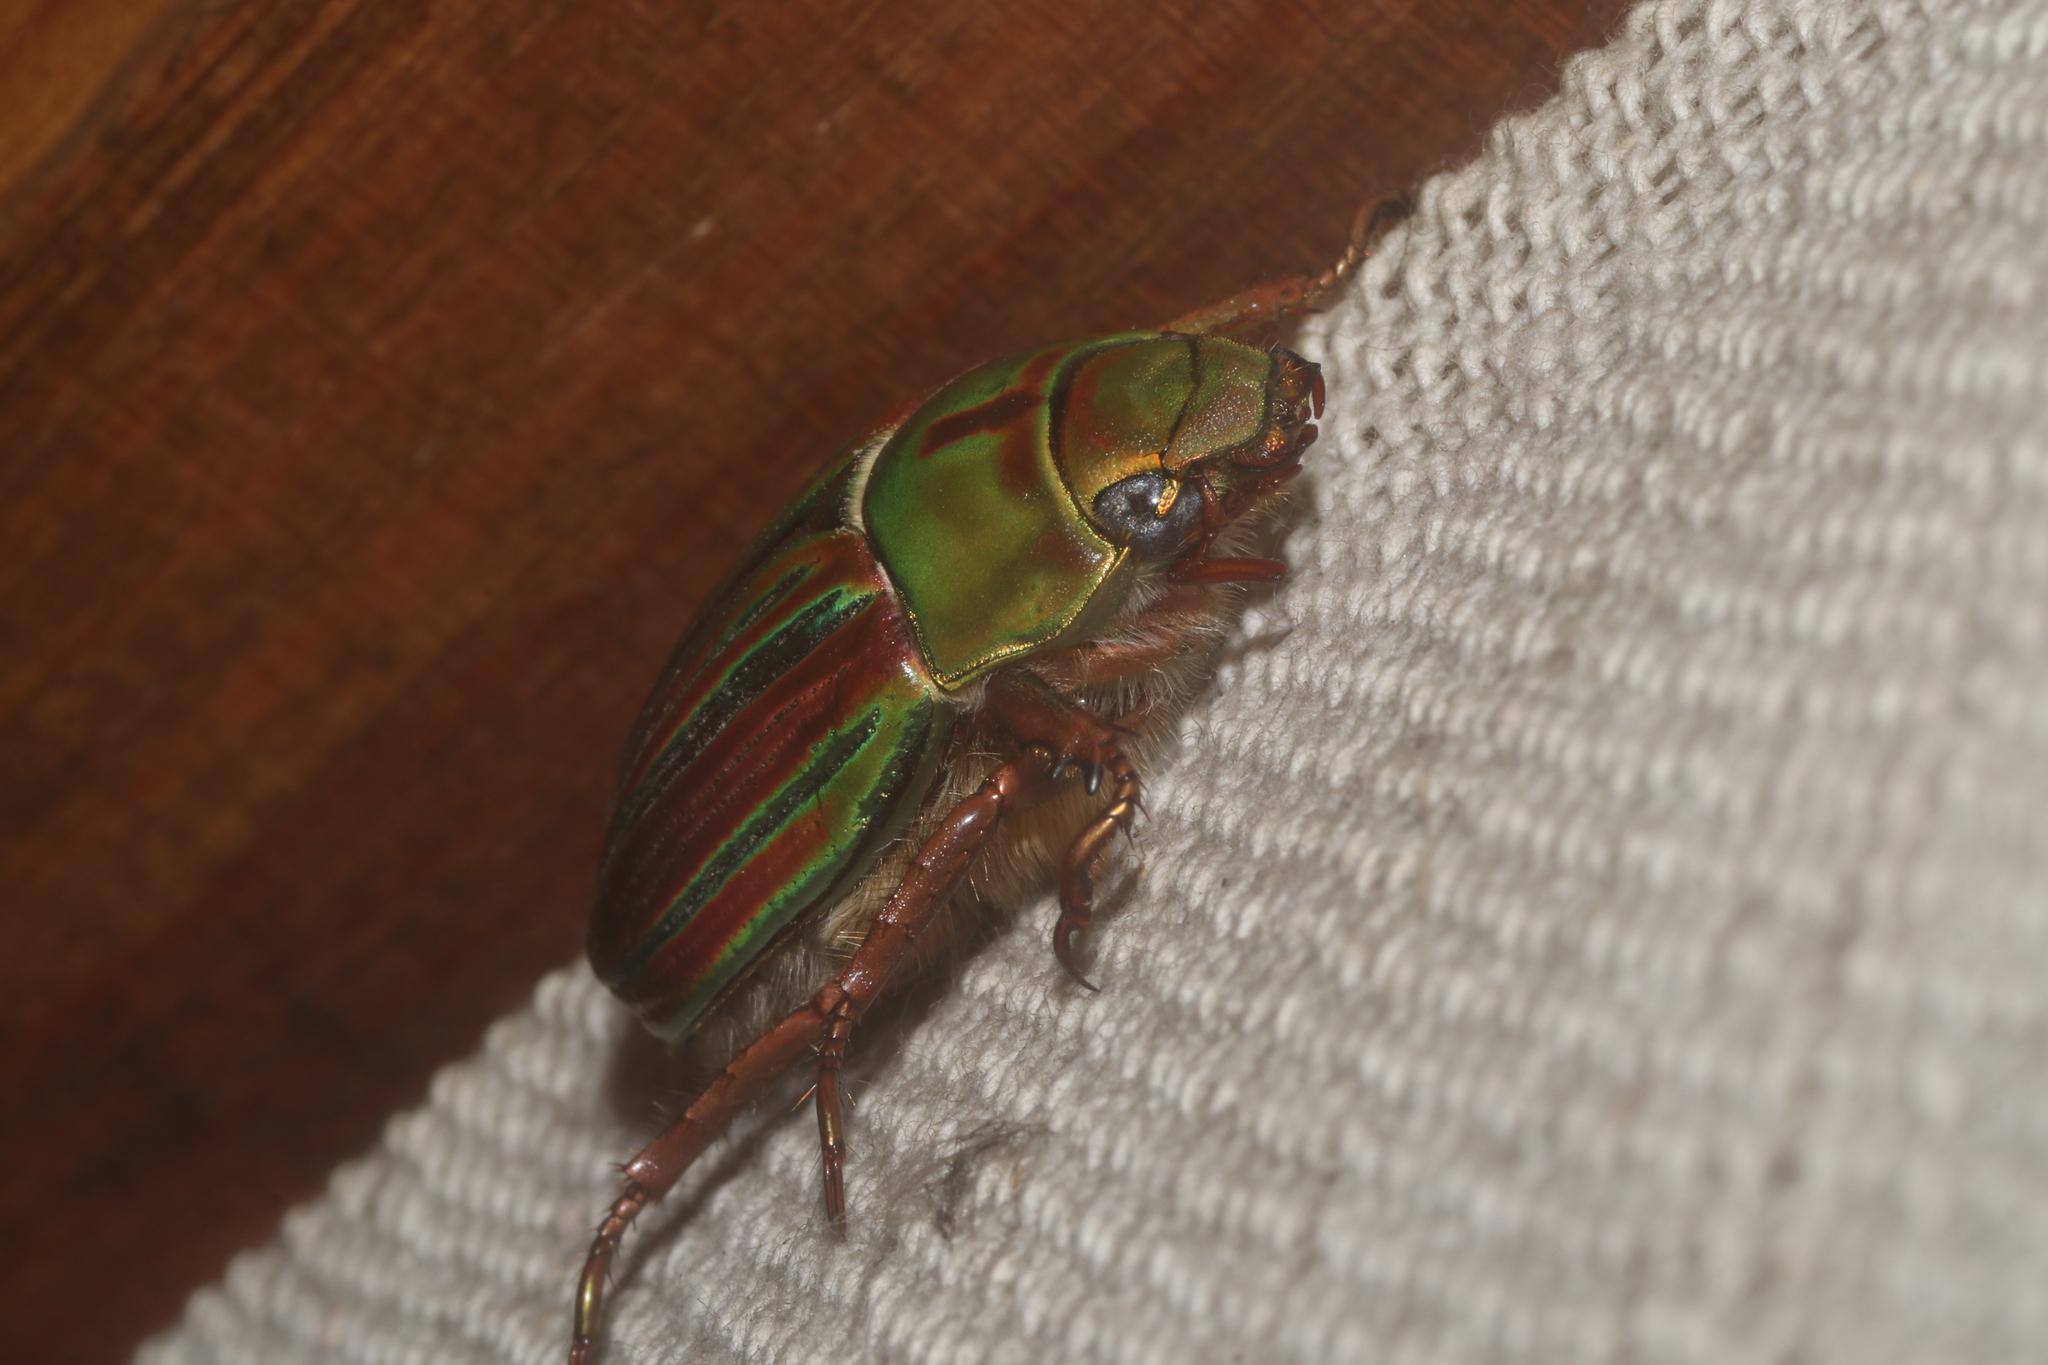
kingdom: Animalia
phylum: Arthropoda
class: Insecta
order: Coleoptera
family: Scarabaeidae
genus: Chrysina
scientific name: Chrysina adelaida
